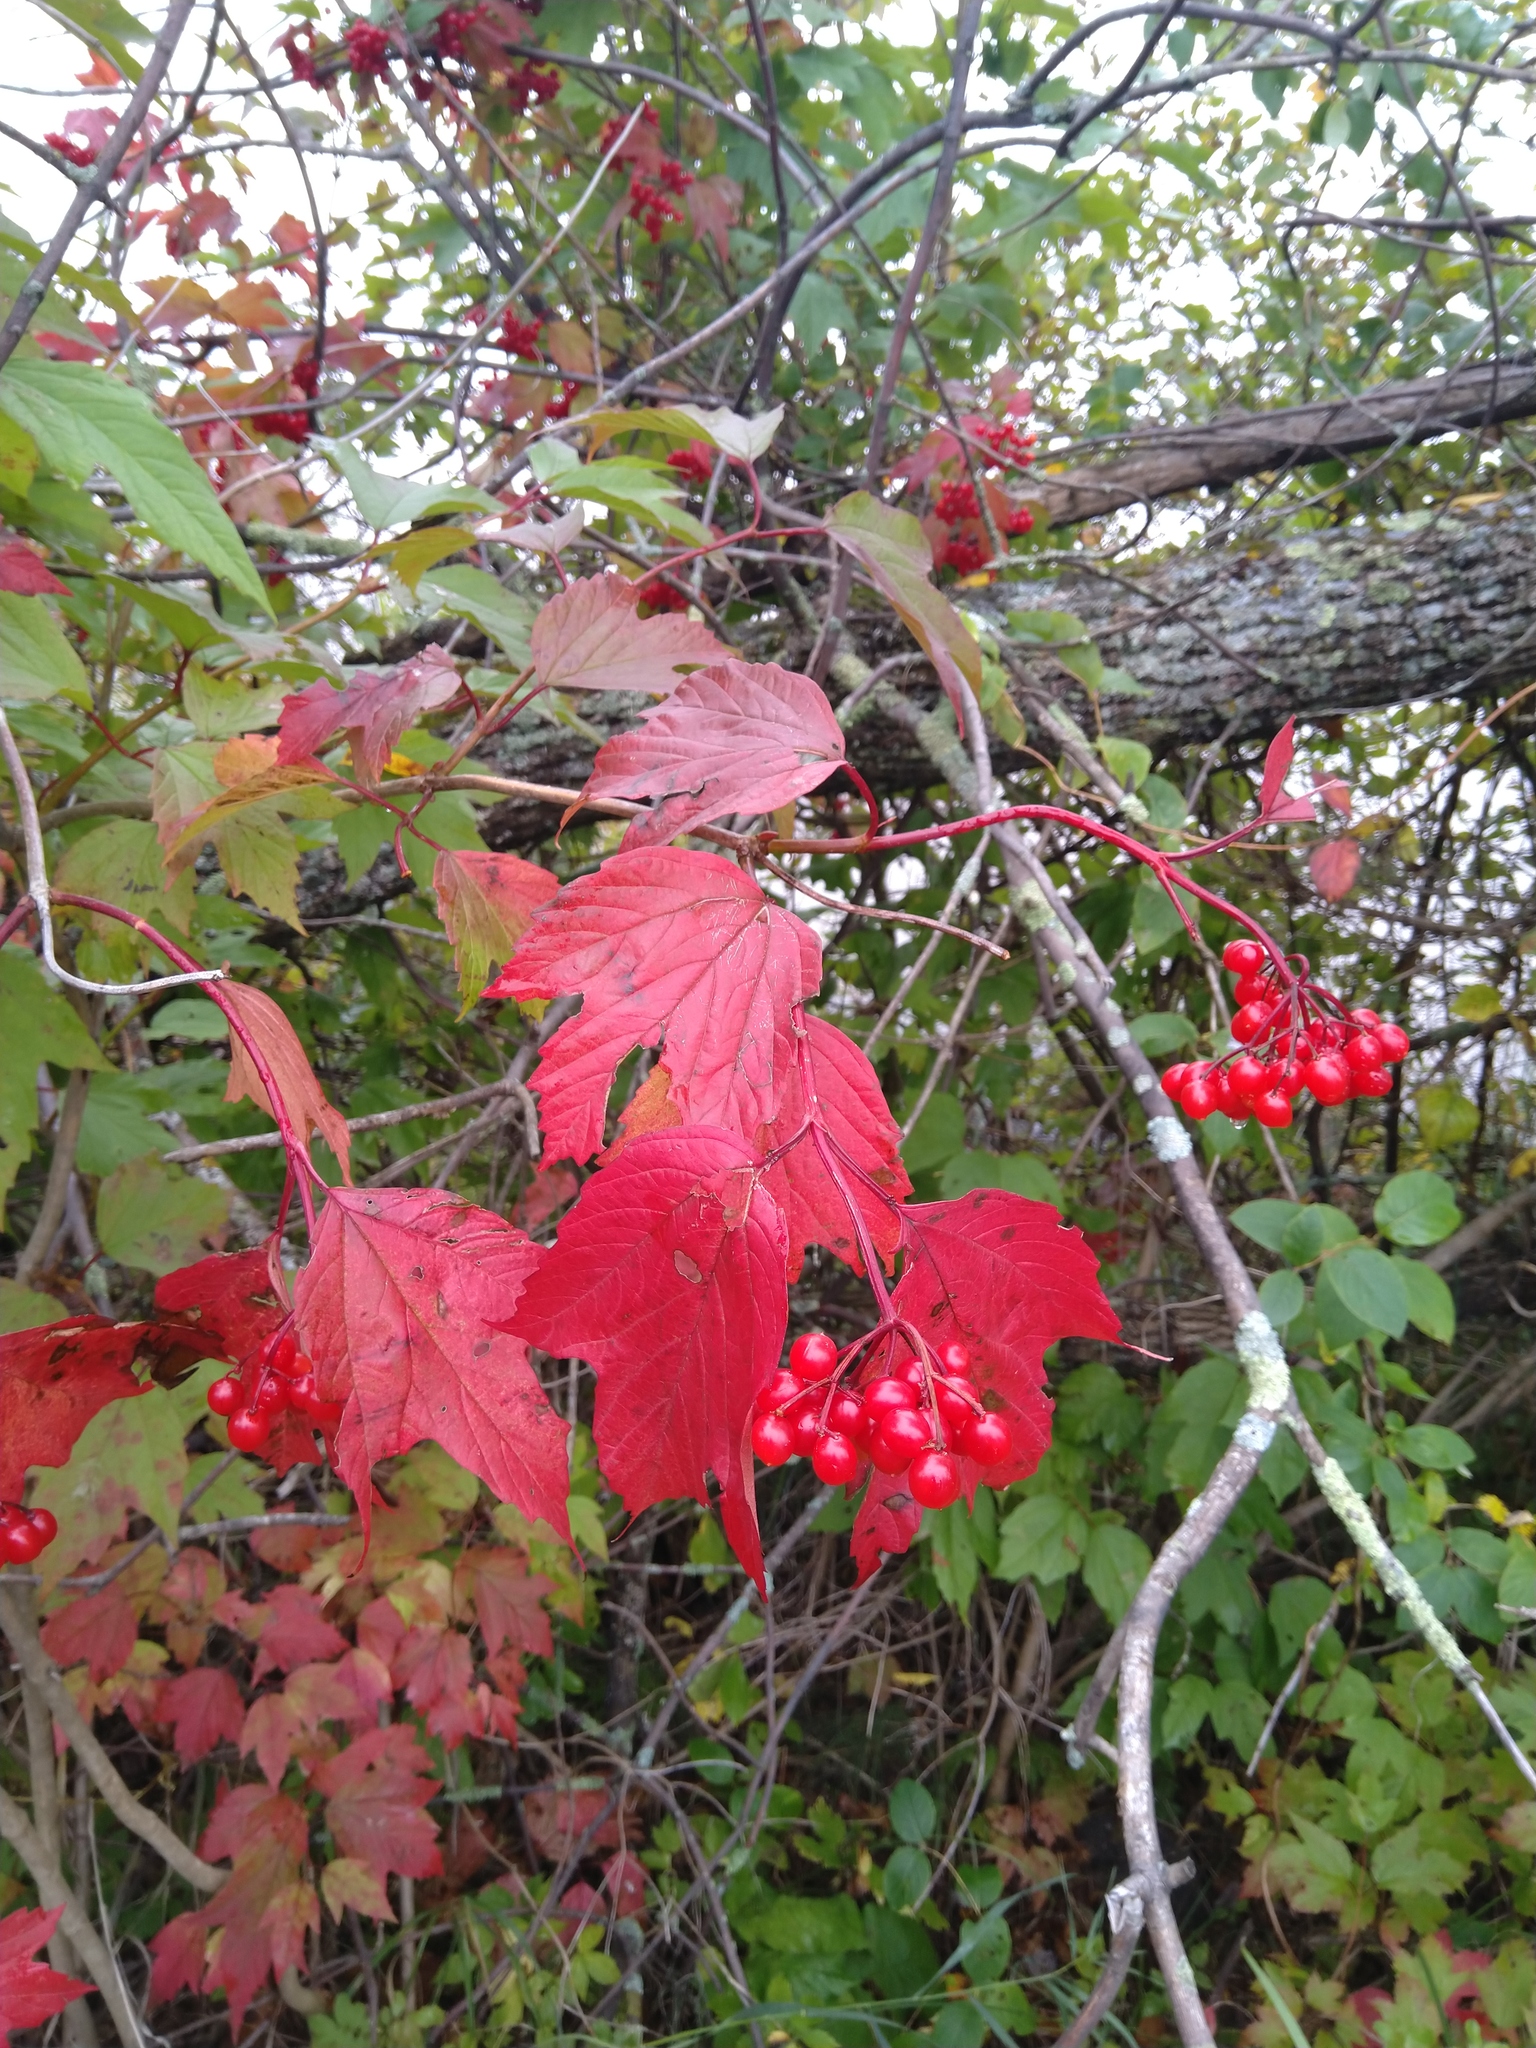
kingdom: Plantae
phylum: Tracheophyta
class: Magnoliopsida
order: Dipsacales
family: Viburnaceae
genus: Viburnum
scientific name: Viburnum opulus
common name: Guelder-rose
